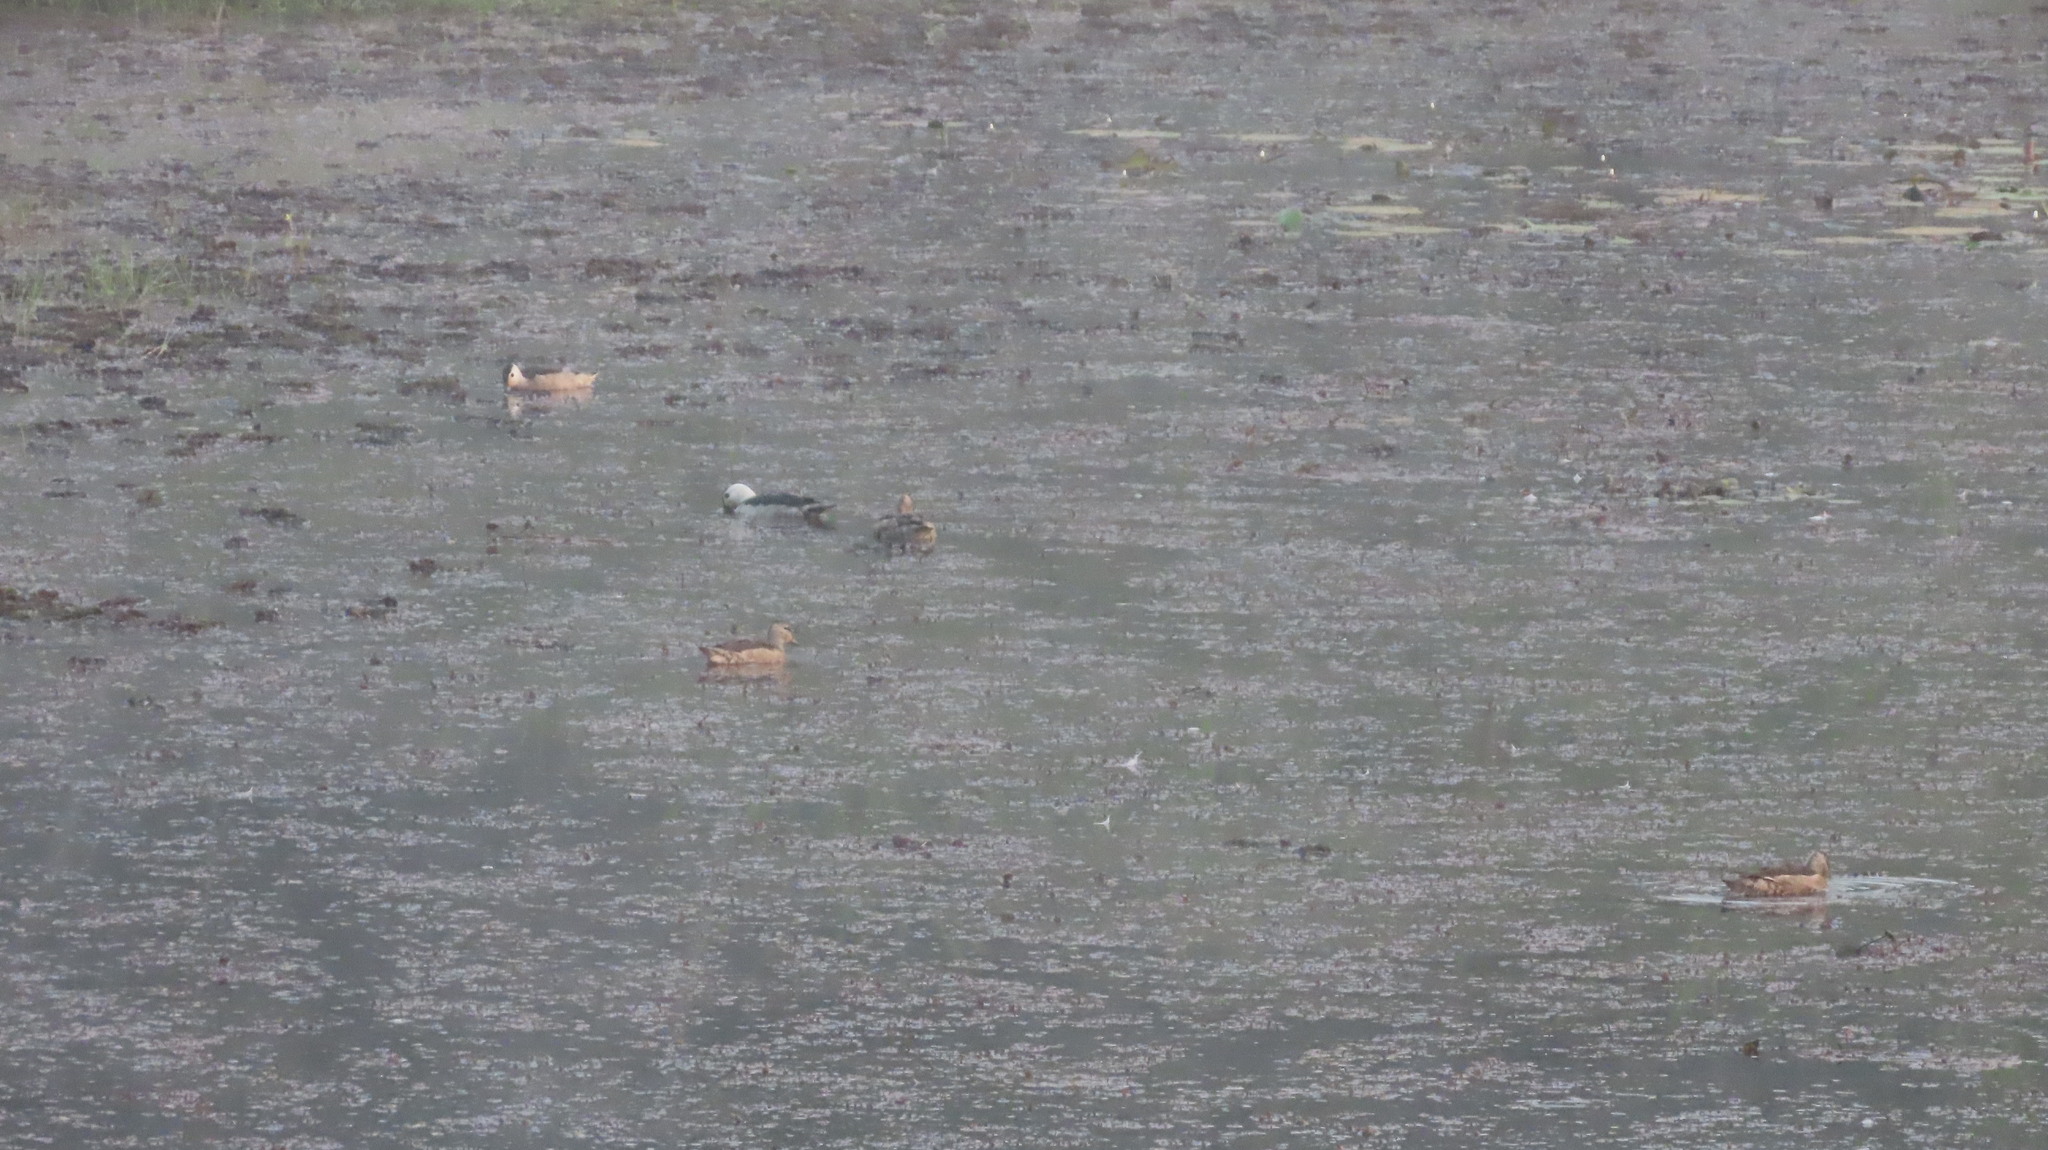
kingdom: Animalia
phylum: Chordata
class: Aves
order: Anseriformes
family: Anatidae
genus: Nettapus
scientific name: Nettapus coromandelianus
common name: Cotton pygmy-goose
